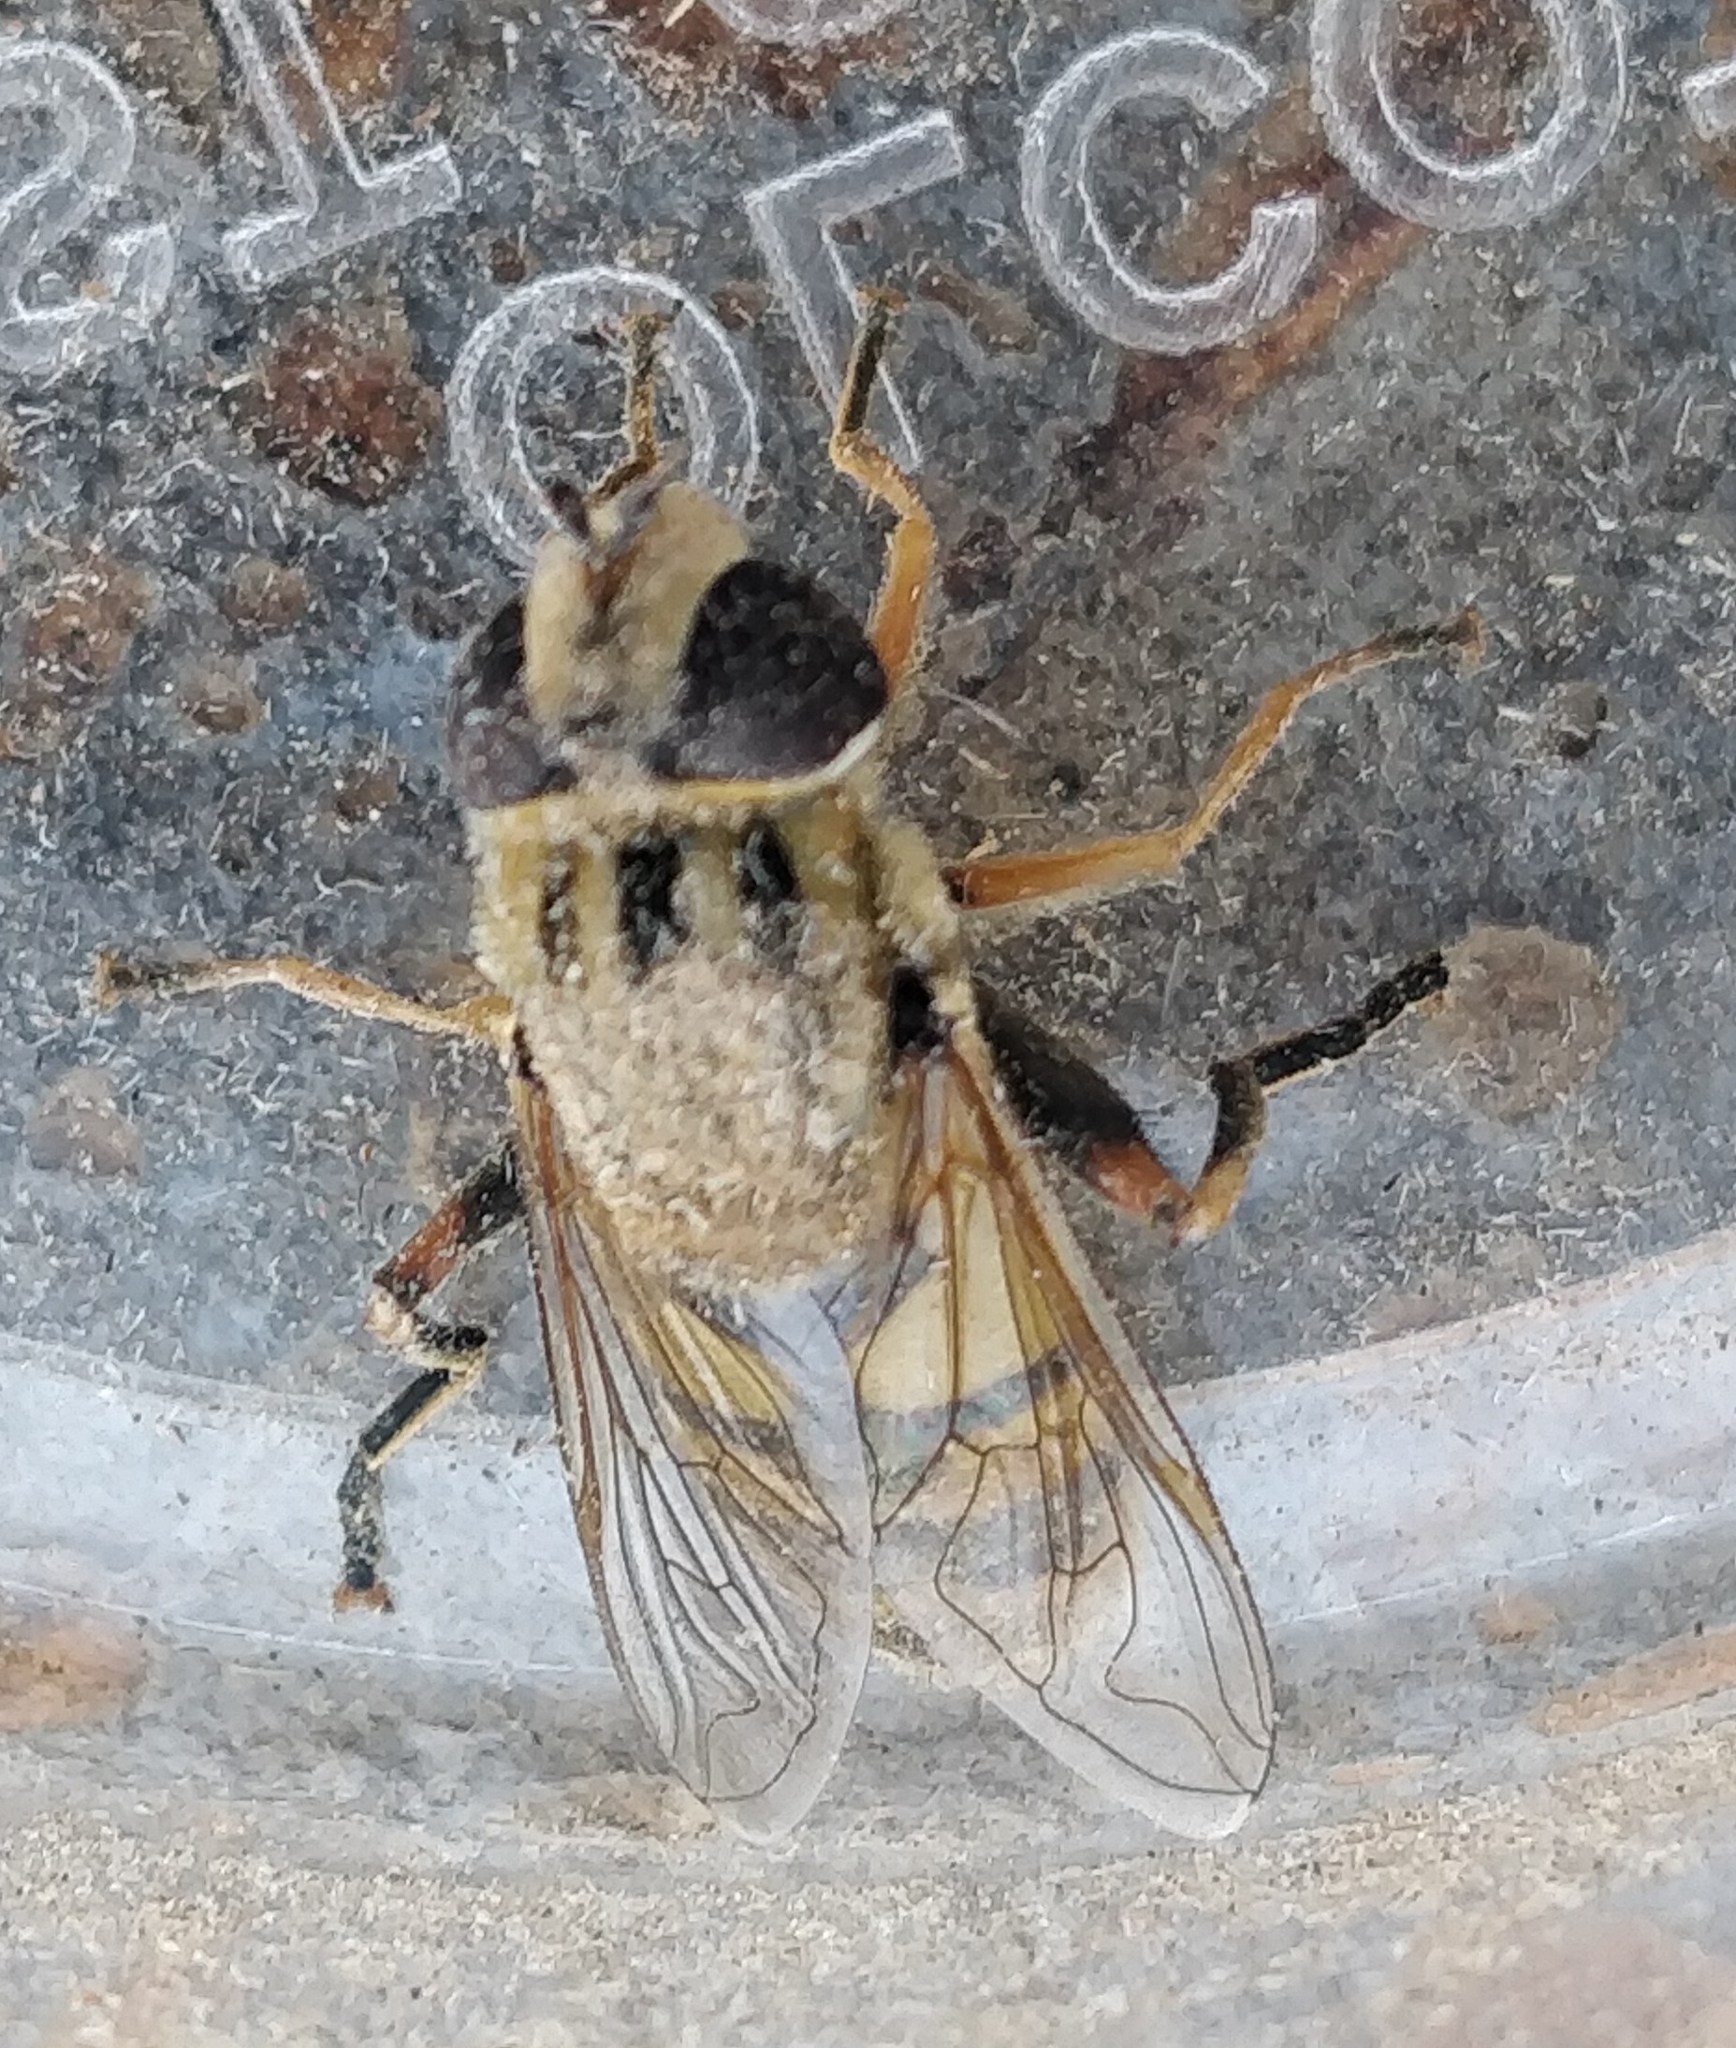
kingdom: Animalia
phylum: Arthropoda
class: Insecta
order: Diptera
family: Syrphidae
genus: Helophilus
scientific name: Helophilus latifrons
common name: Broad-headed marsh fly
